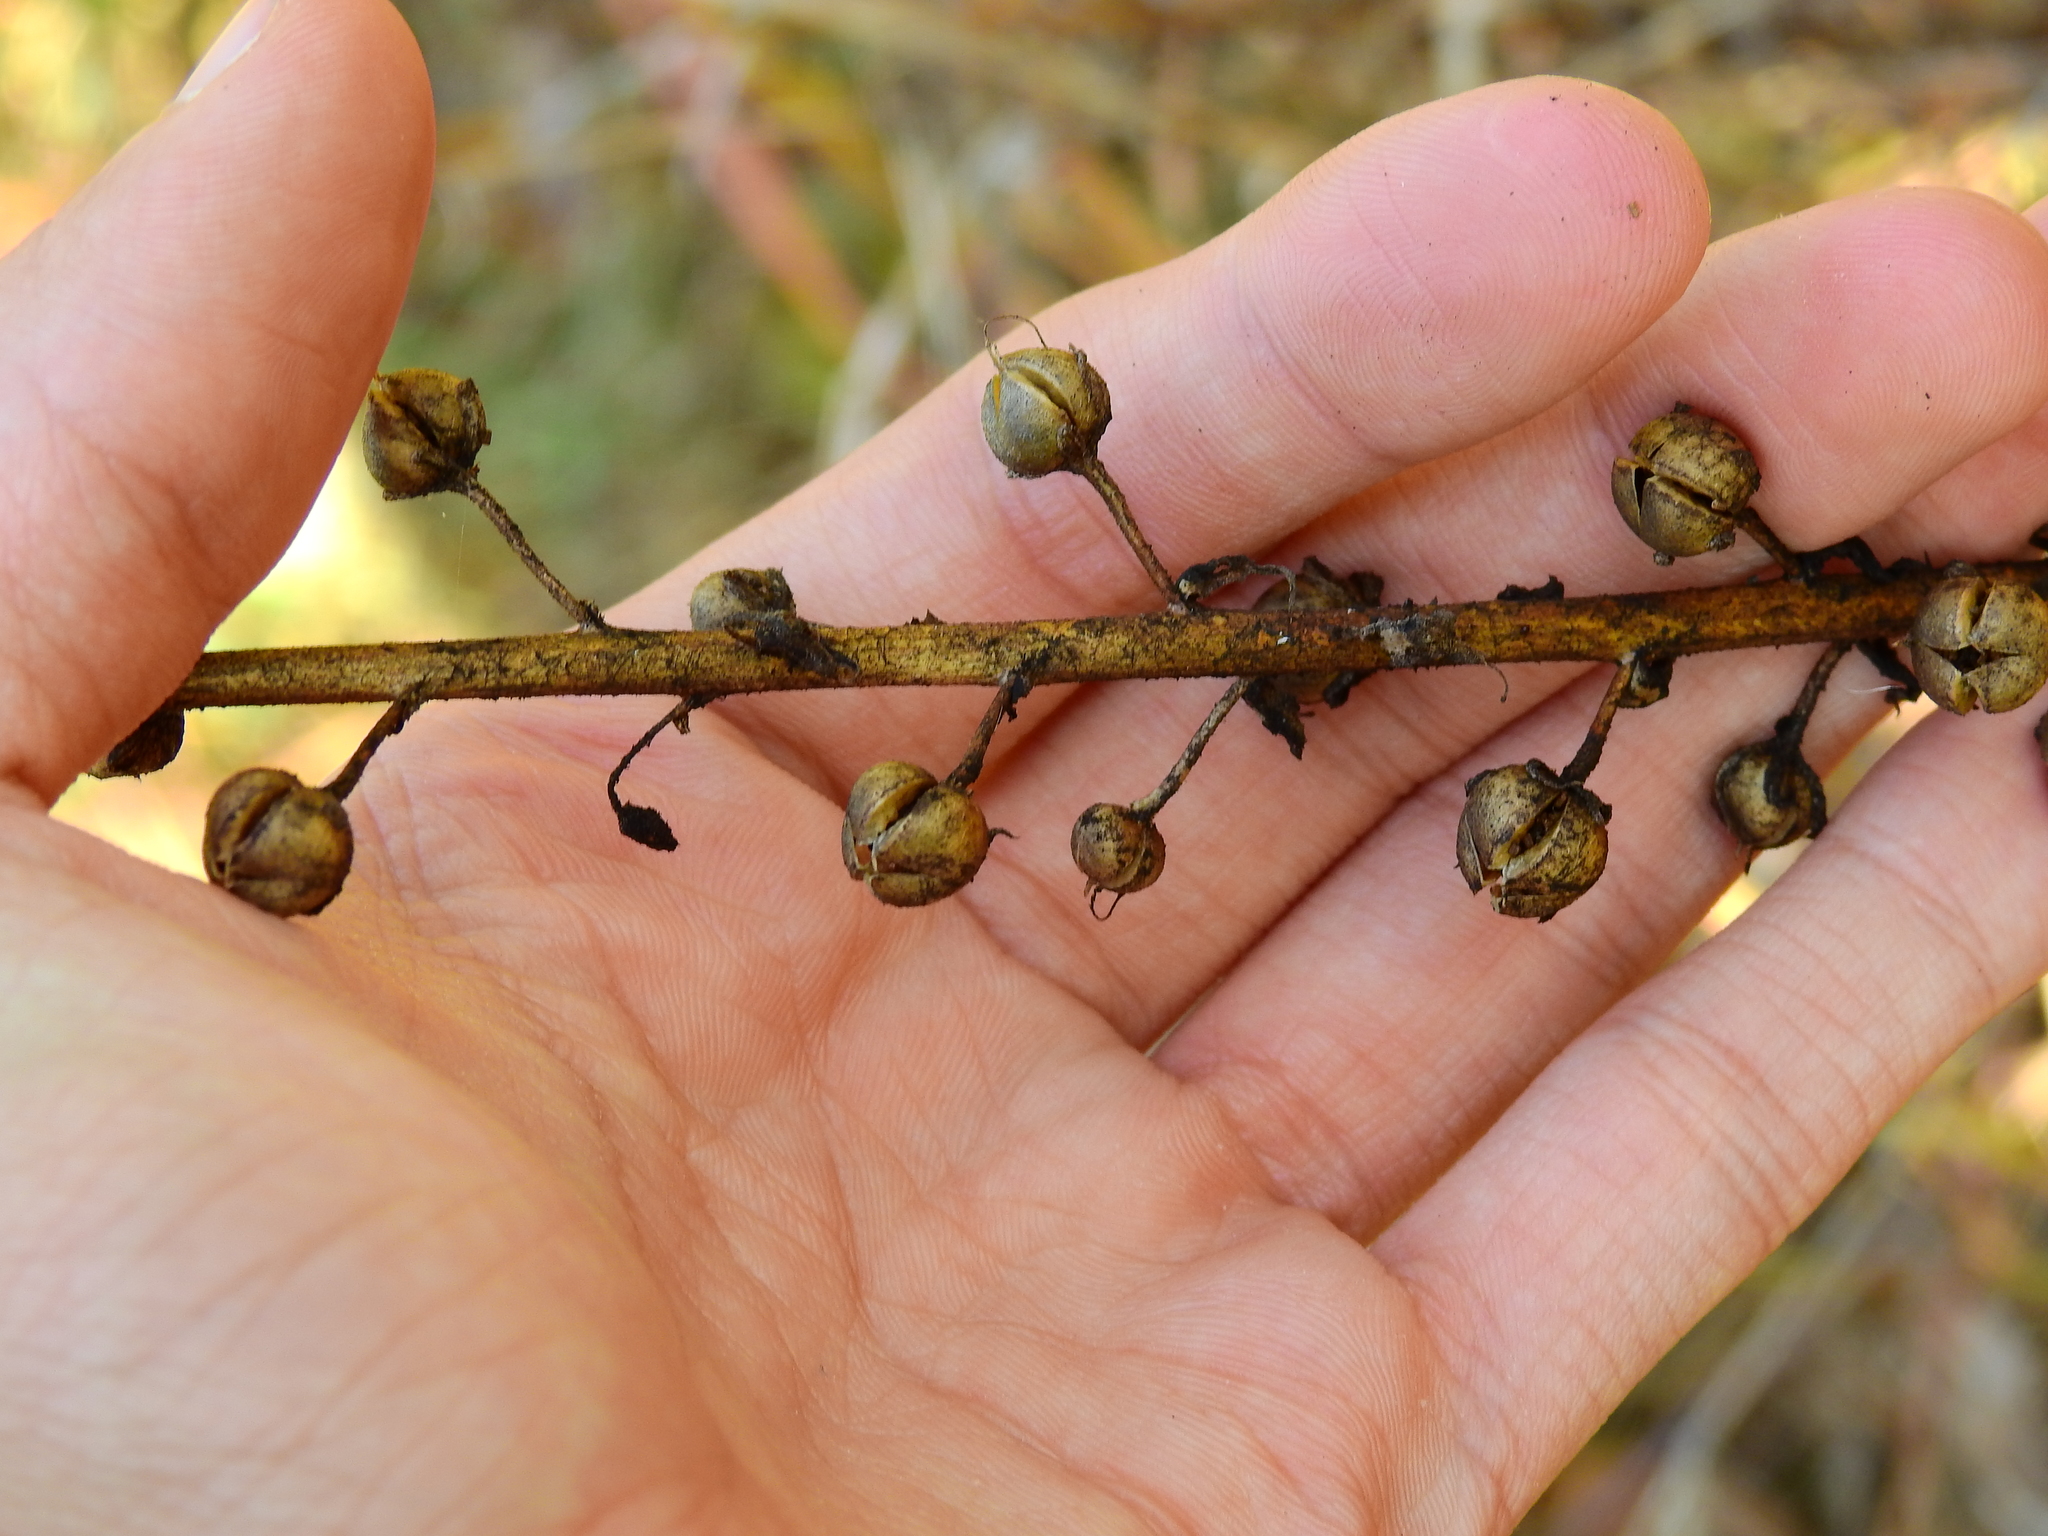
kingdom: Plantae
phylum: Tracheophyta
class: Magnoliopsida
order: Lamiales
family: Scrophulariaceae
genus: Verbascum
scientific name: Verbascum blattaria
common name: Moth mullein
